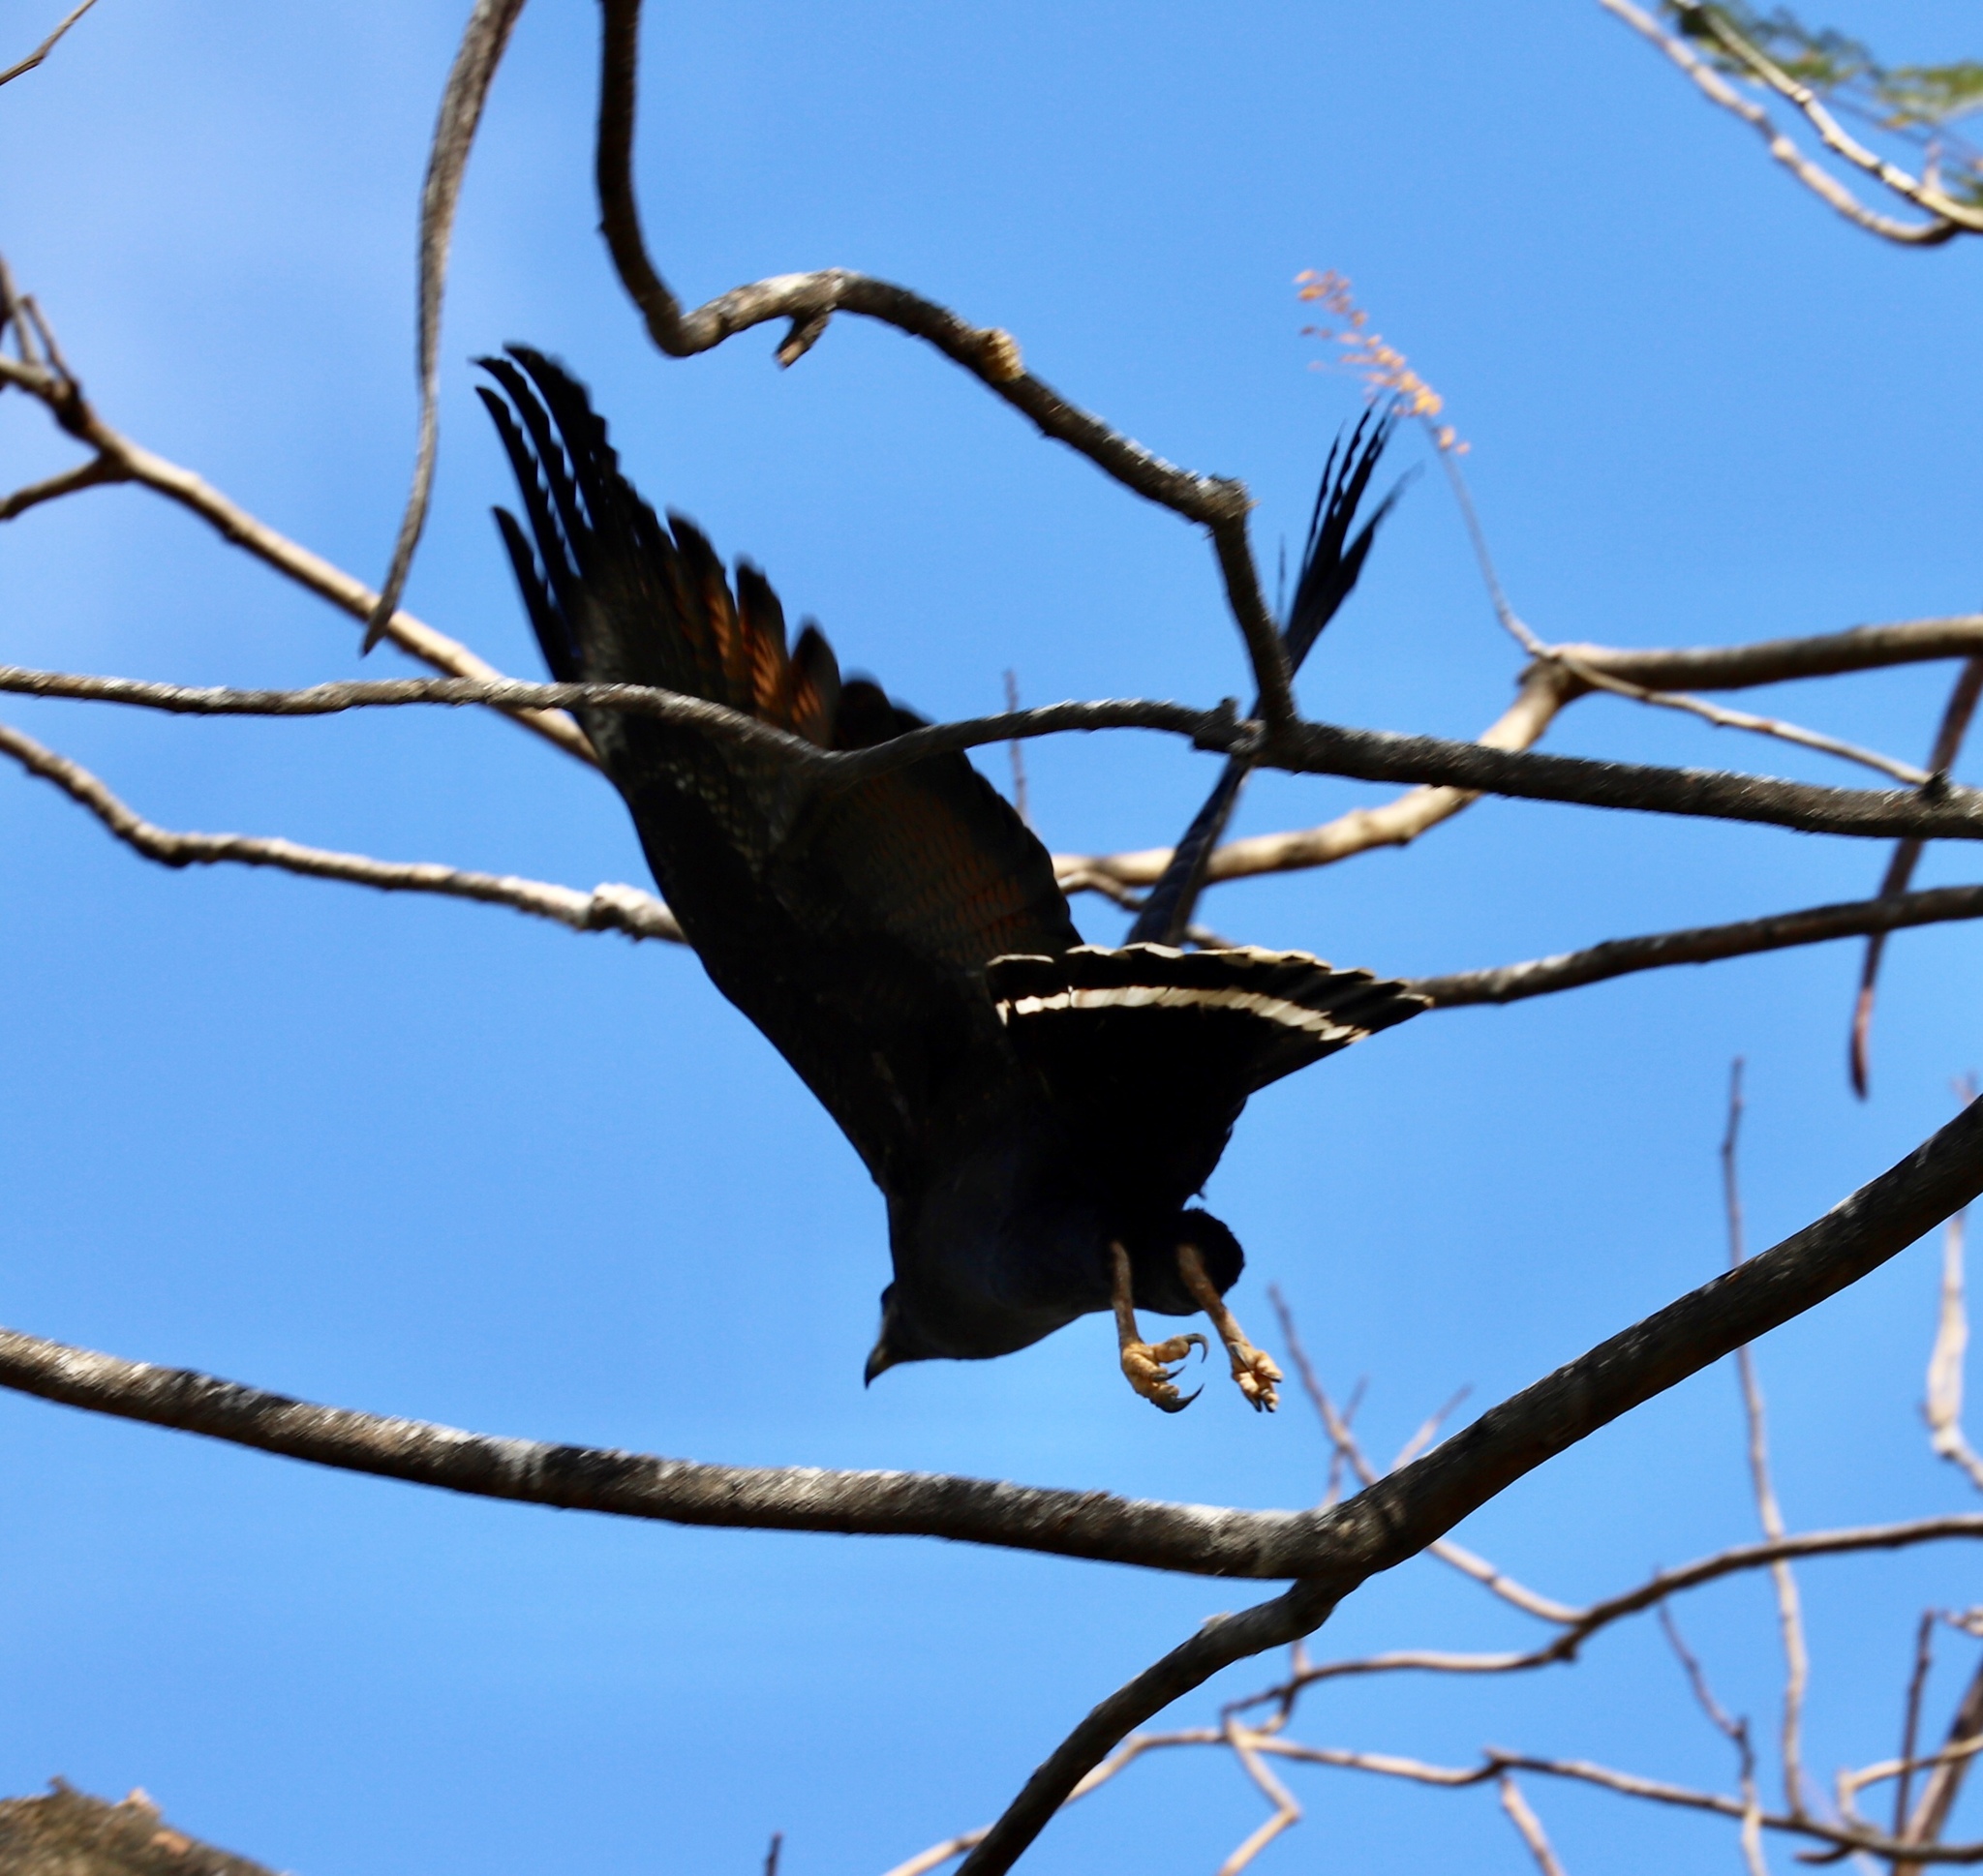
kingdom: Animalia
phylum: Chordata
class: Aves
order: Accipitriformes
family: Accipitridae
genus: Buteogallus
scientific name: Buteogallus anthracinus
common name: Common black hawk
